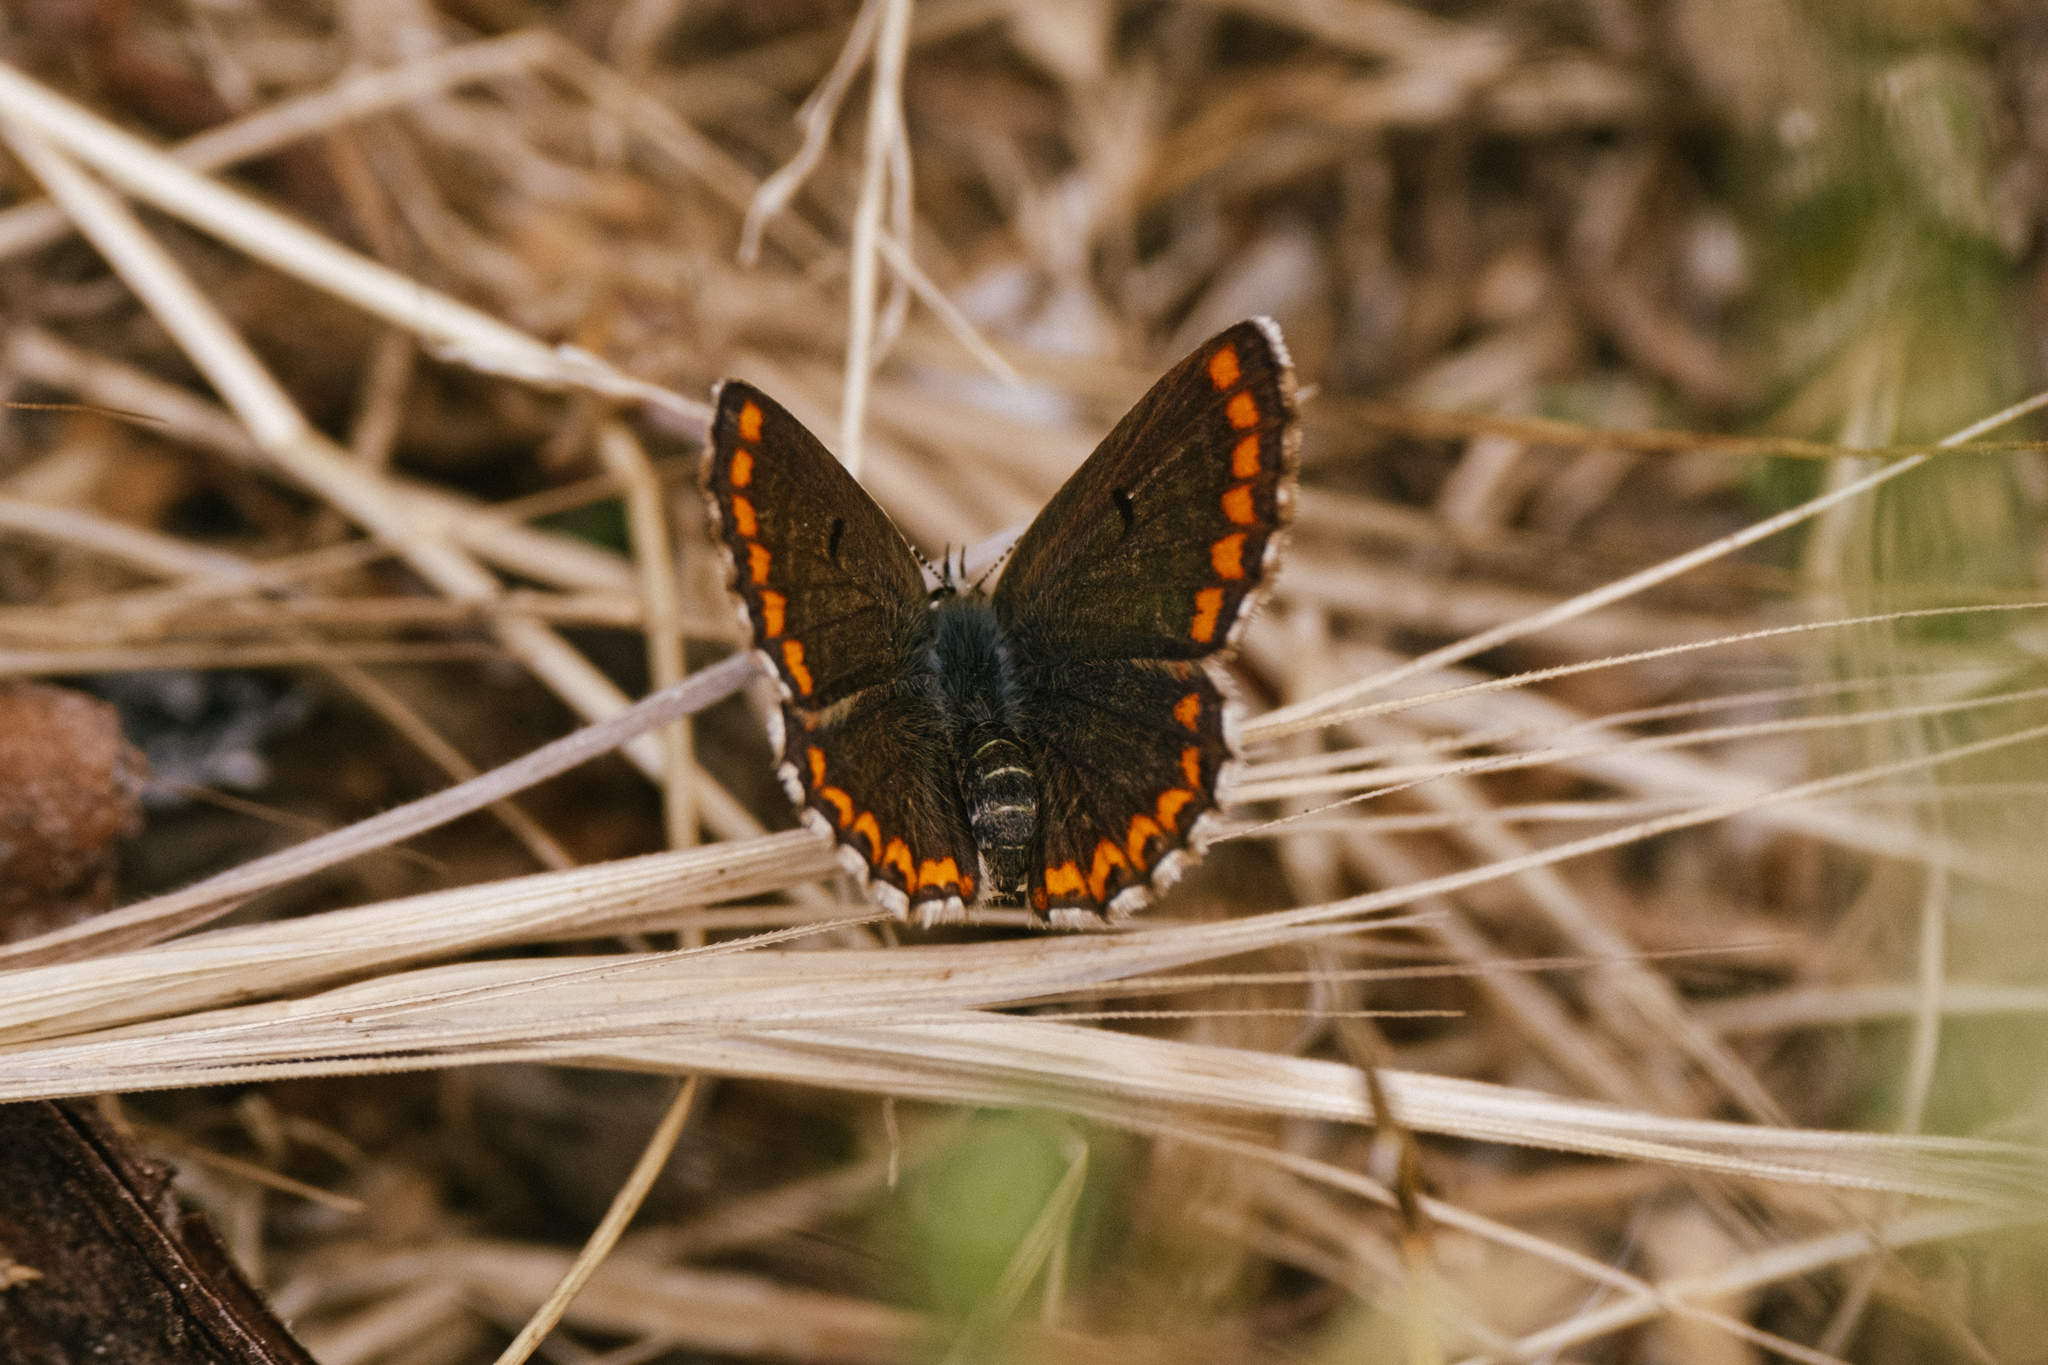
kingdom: Animalia
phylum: Arthropoda
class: Insecta
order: Lepidoptera
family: Lycaenidae
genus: Aricia
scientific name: Aricia cramera
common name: Eschscholtz´s brown  argus
